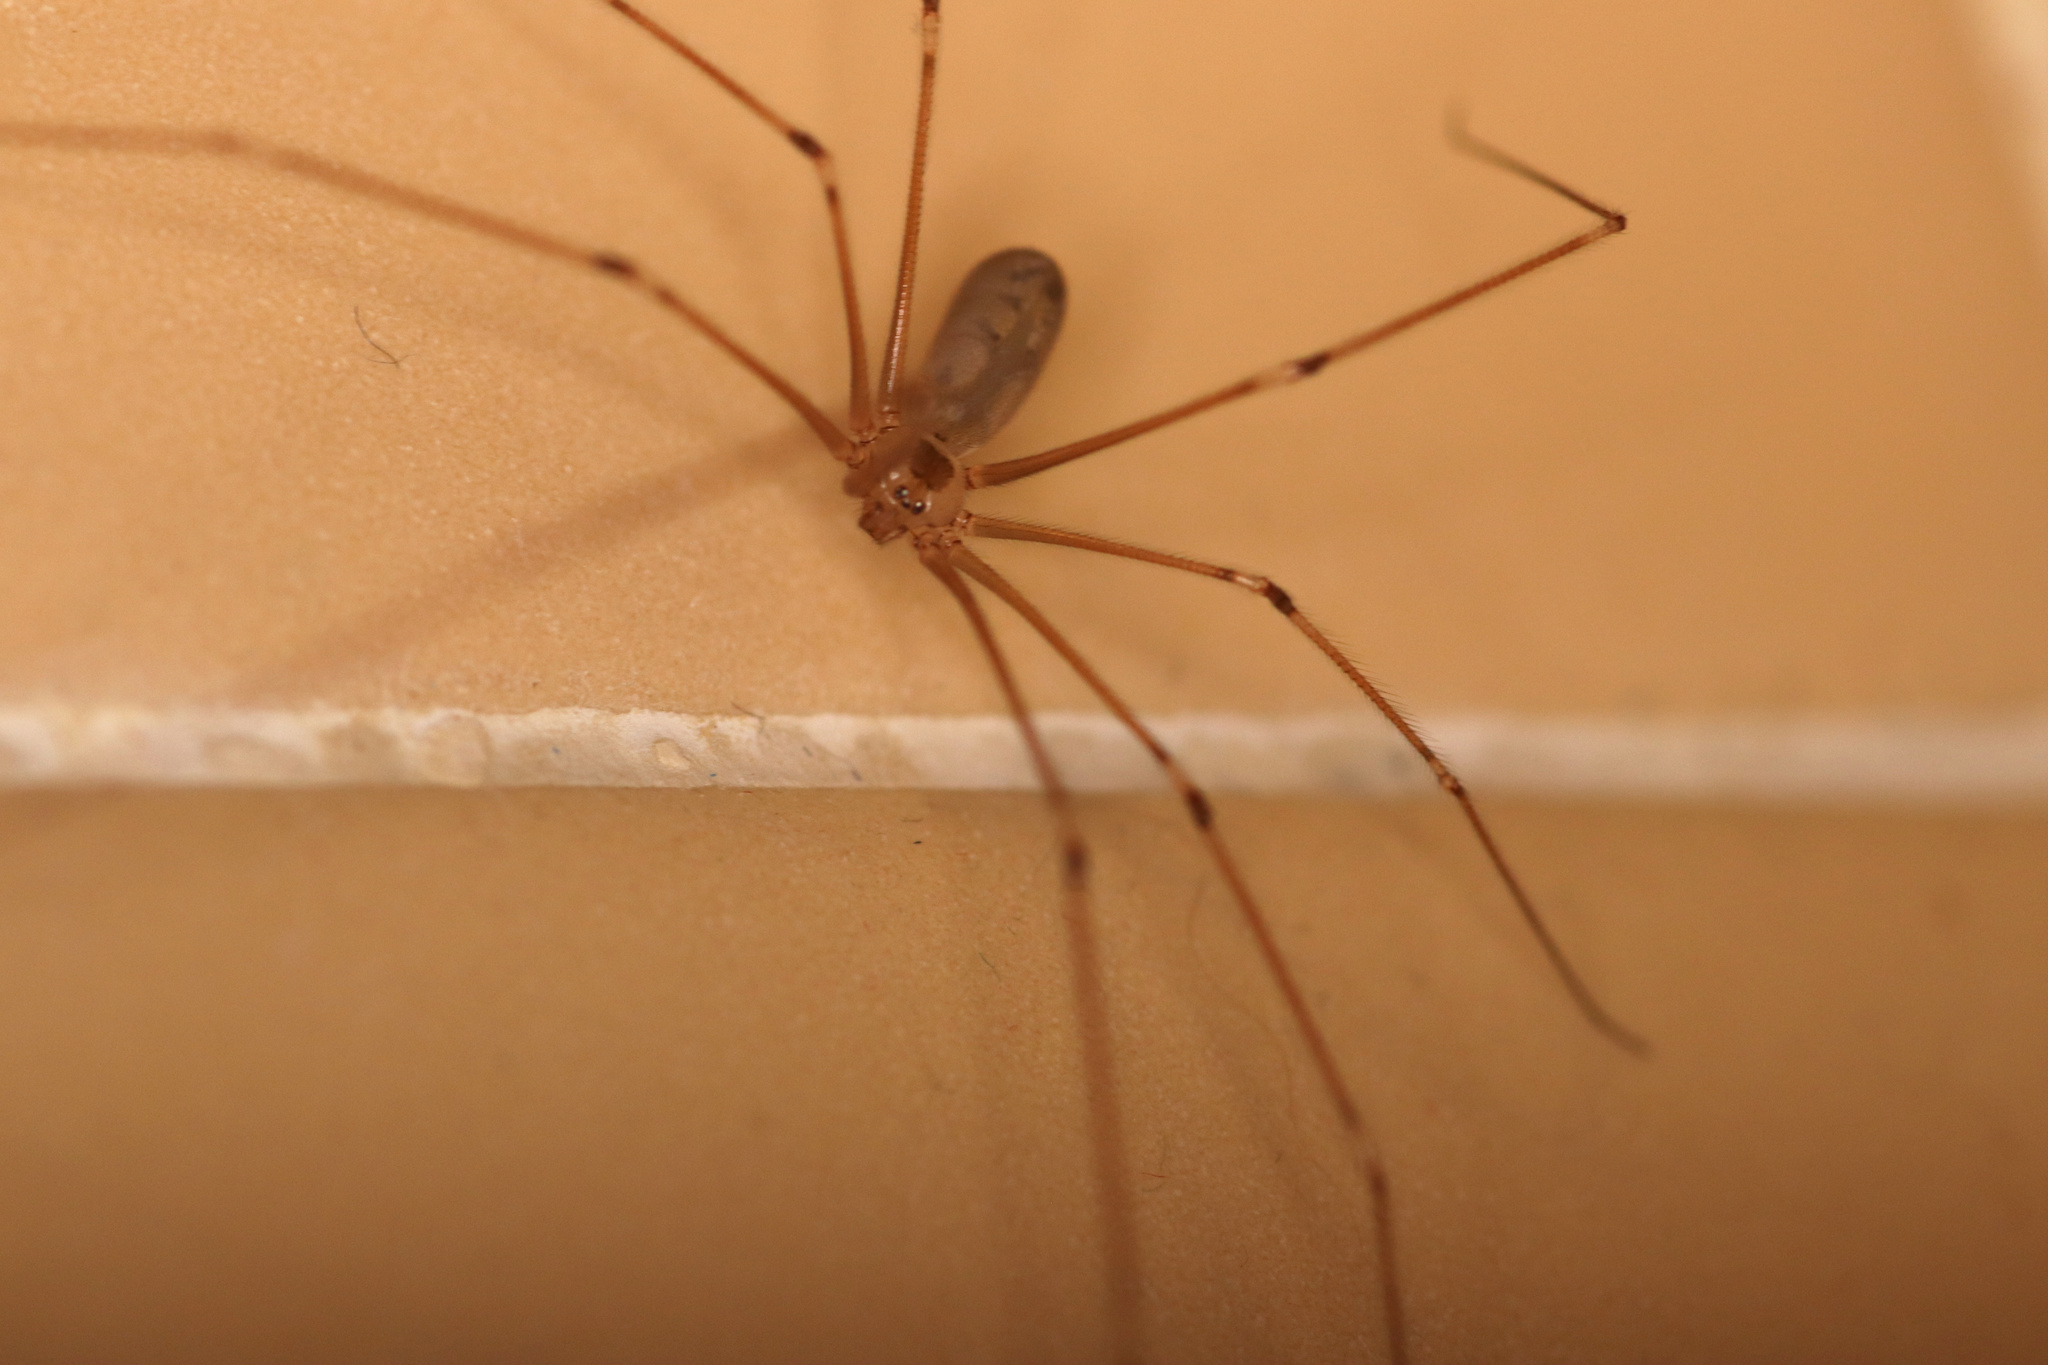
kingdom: Animalia
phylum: Arthropoda
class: Arachnida
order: Araneae
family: Pholcidae
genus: Pholcus
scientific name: Pholcus phalangioides
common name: Longbodied cellar spider
